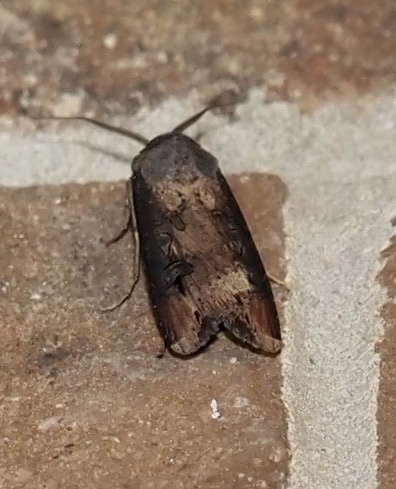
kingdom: Animalia
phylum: Arthropoda
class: Insecta
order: Lepidoptera
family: Noctuidae
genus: Agrotis
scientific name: Agrotis ipsilon
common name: Dark sword-grass
